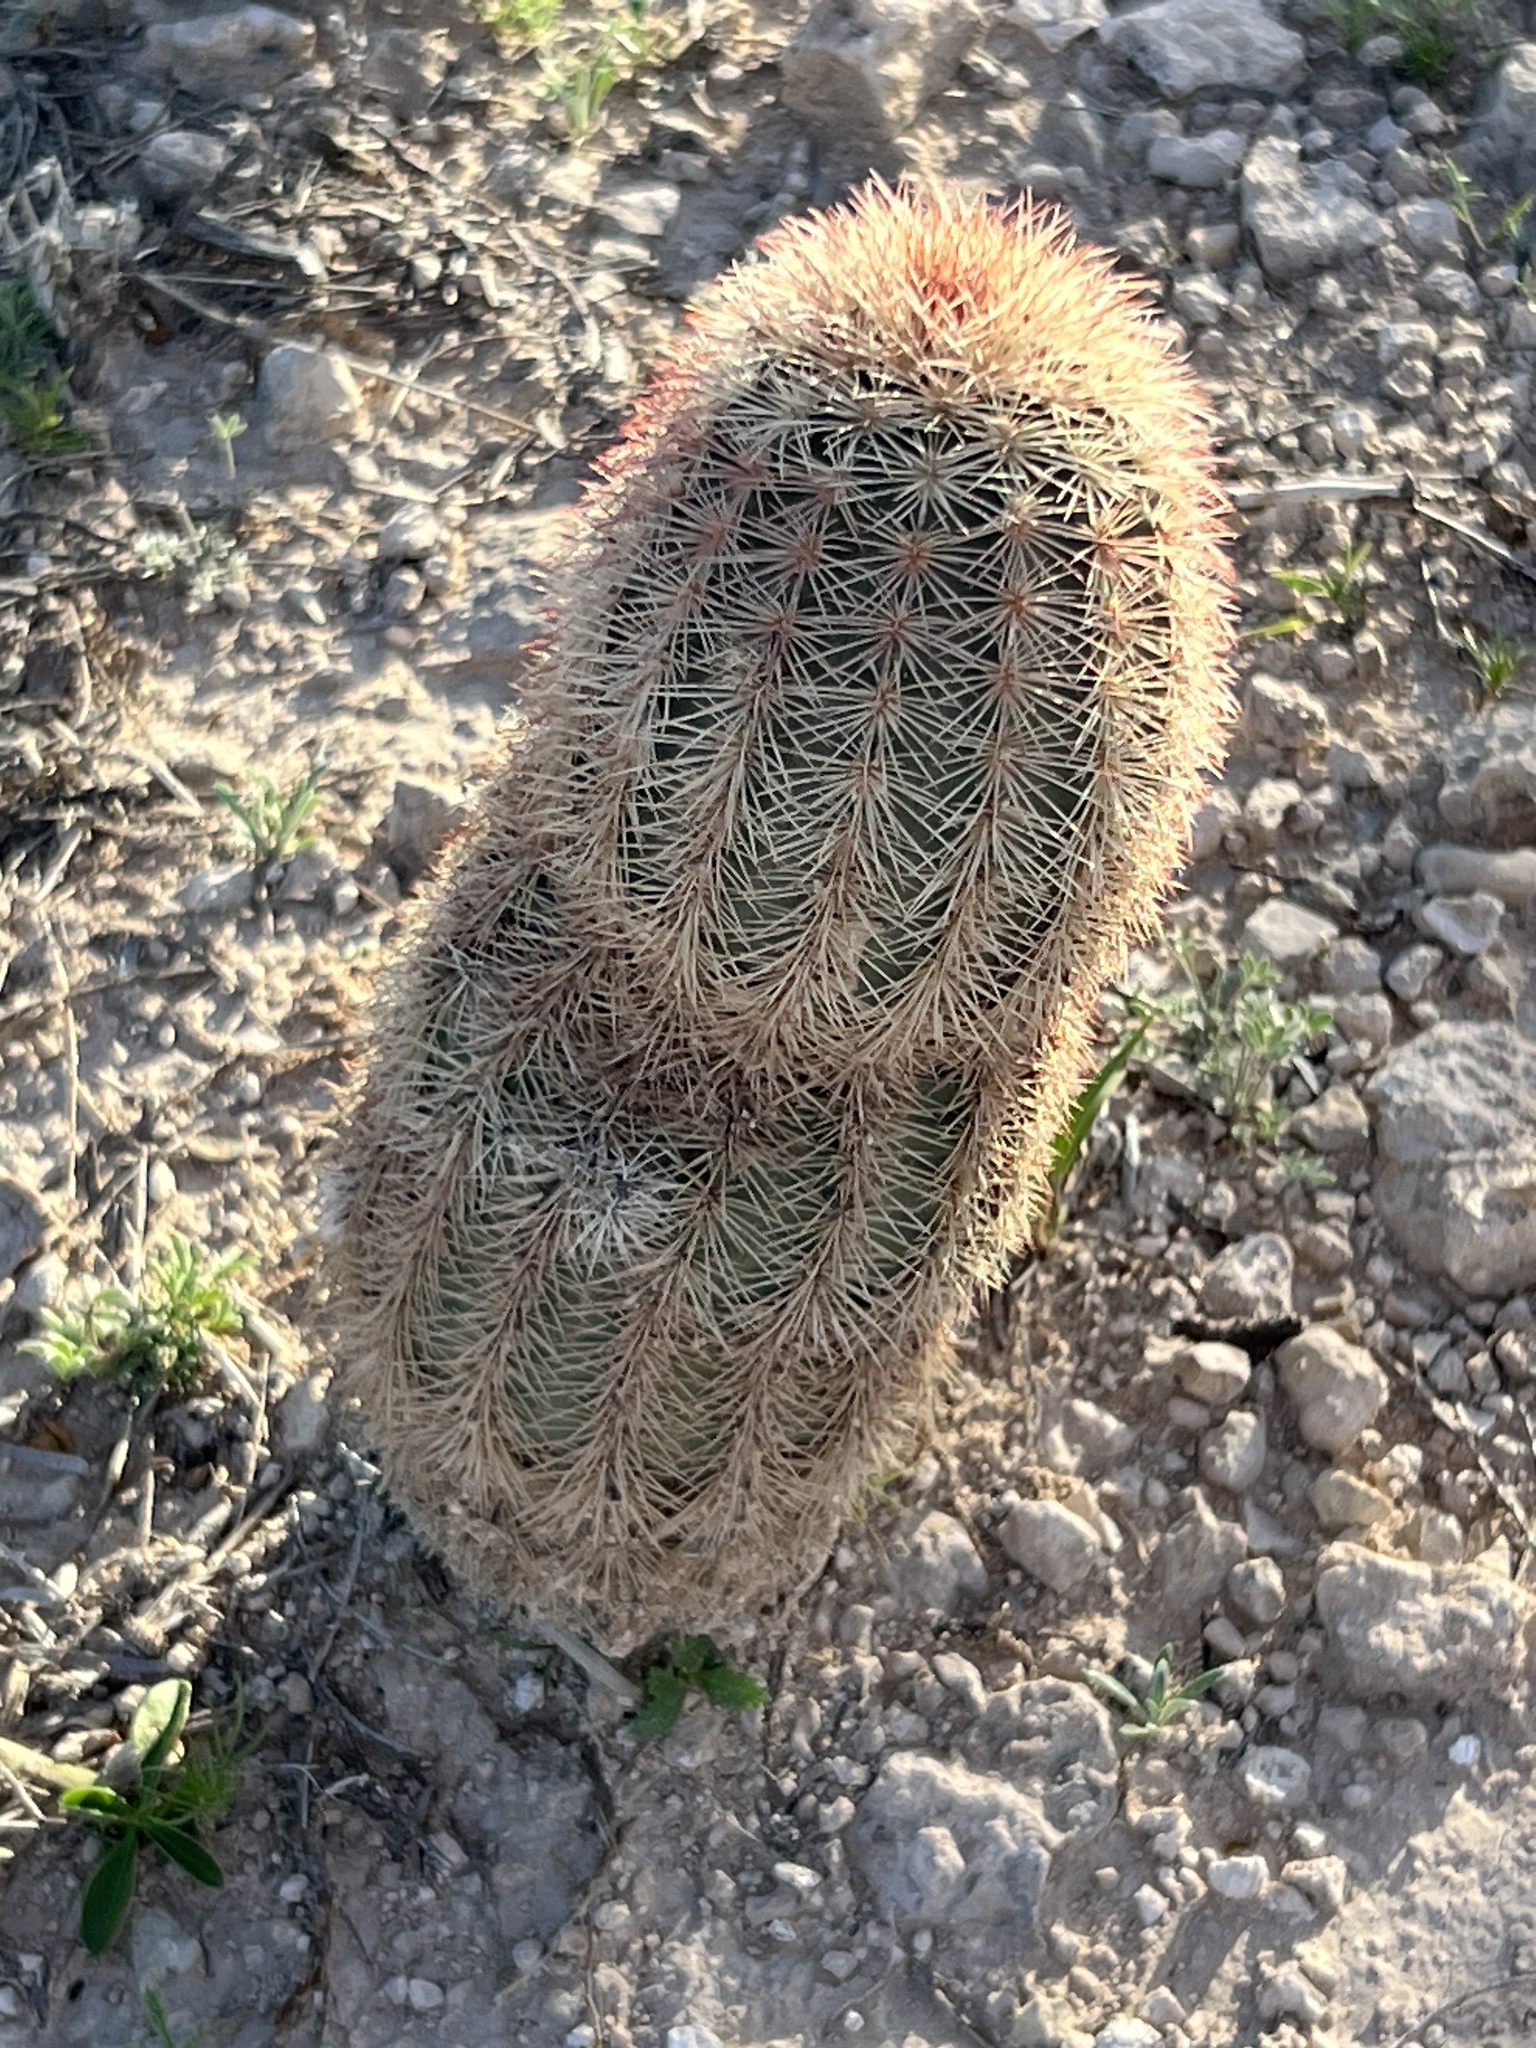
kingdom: Plantae
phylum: Tracheophyta
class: Magnoliopsida
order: Caryophyllales
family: Cactaceae
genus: Echinocereus
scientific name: Echinocereus dasyacanthus
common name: Spiny hedgehog cactus
